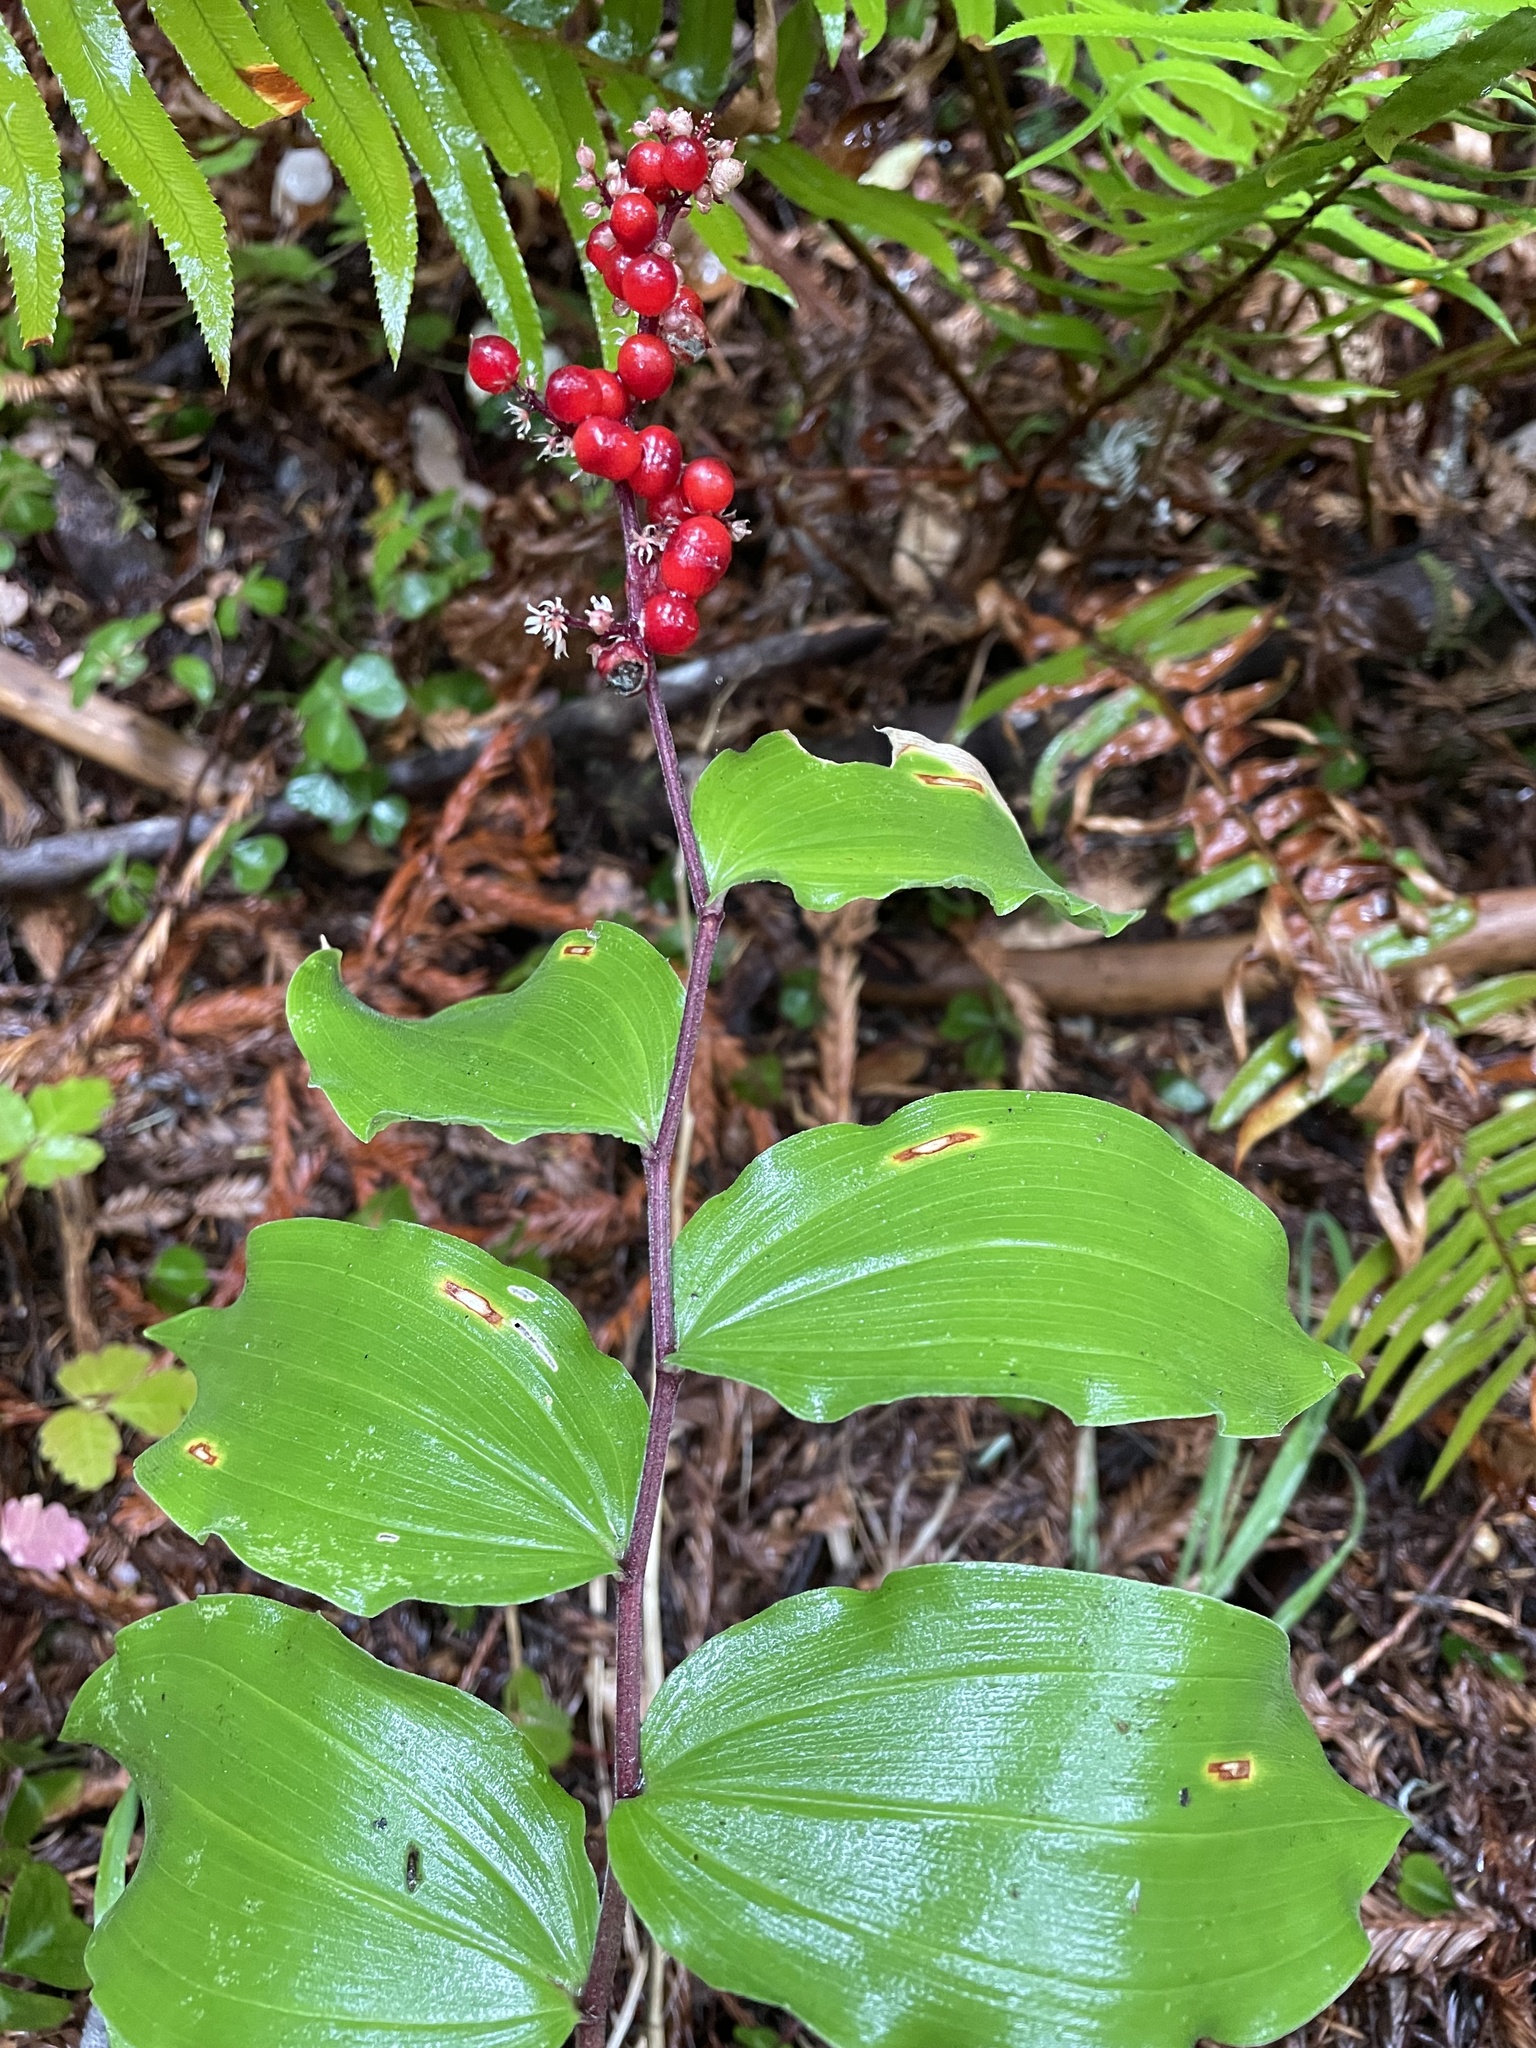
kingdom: Plantae
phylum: Tracheophyta
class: Liliopsida
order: Asparagales
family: Asparagaceae
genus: Maianthemum
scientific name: Maianthemum racemosum
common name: False spikenard
